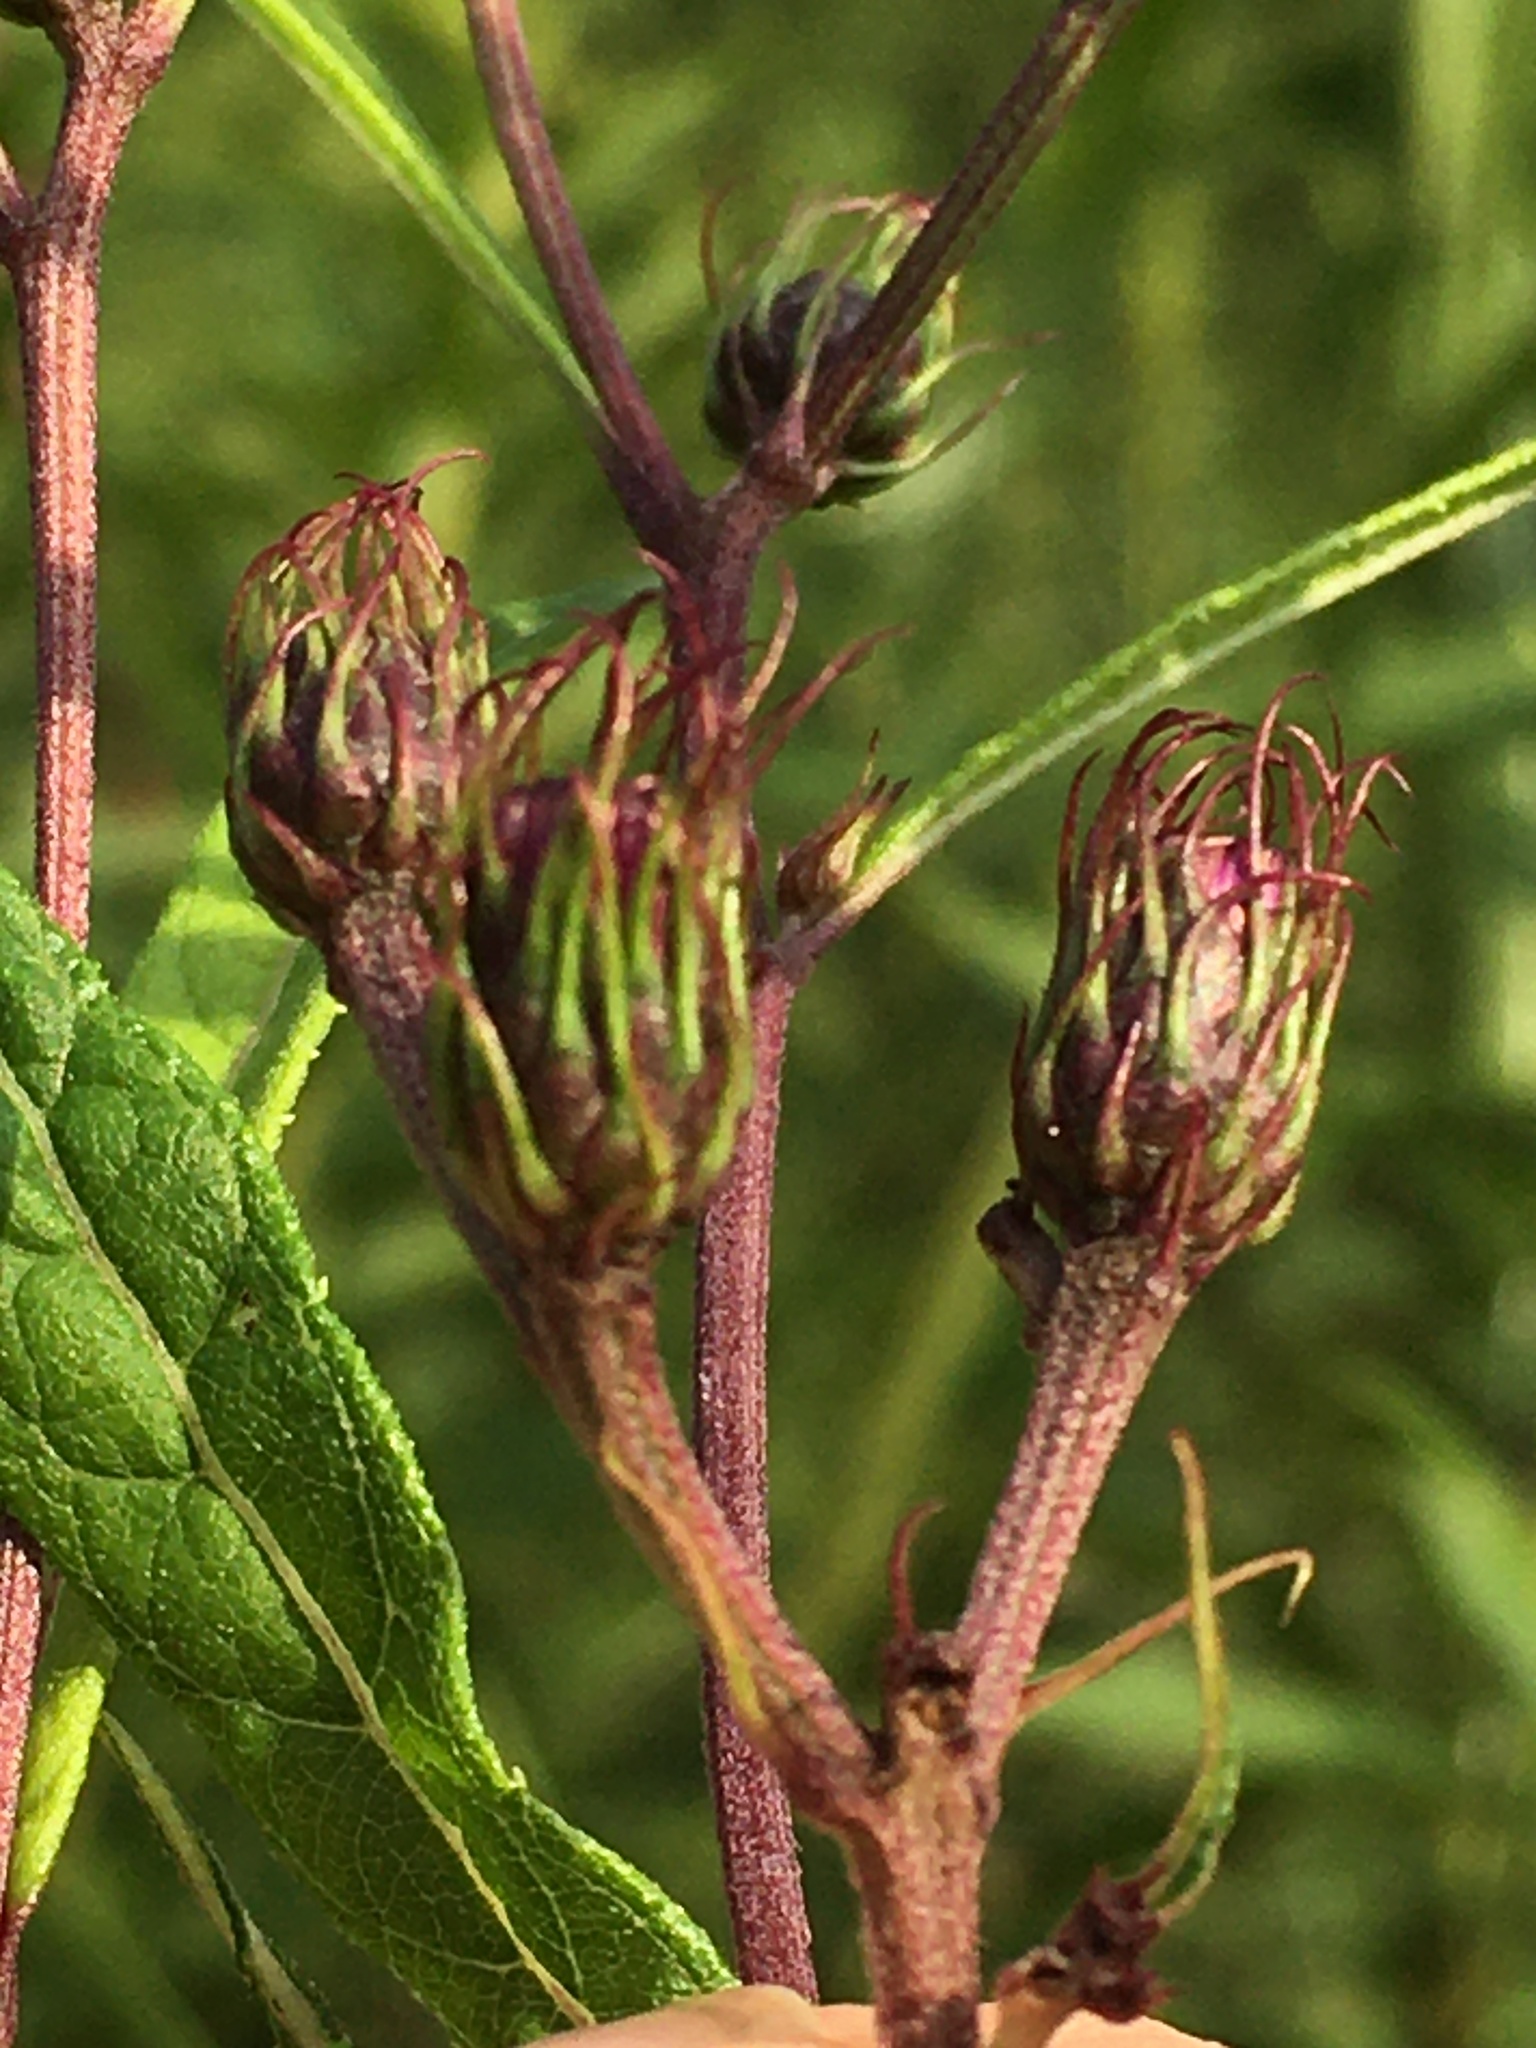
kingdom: Plantae
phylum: Tracheophyta
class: Magnoliopsida
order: Asterales
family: Asteraceae
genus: Vernonia
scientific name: Vernonia noveboracensis
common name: New york ironweed
